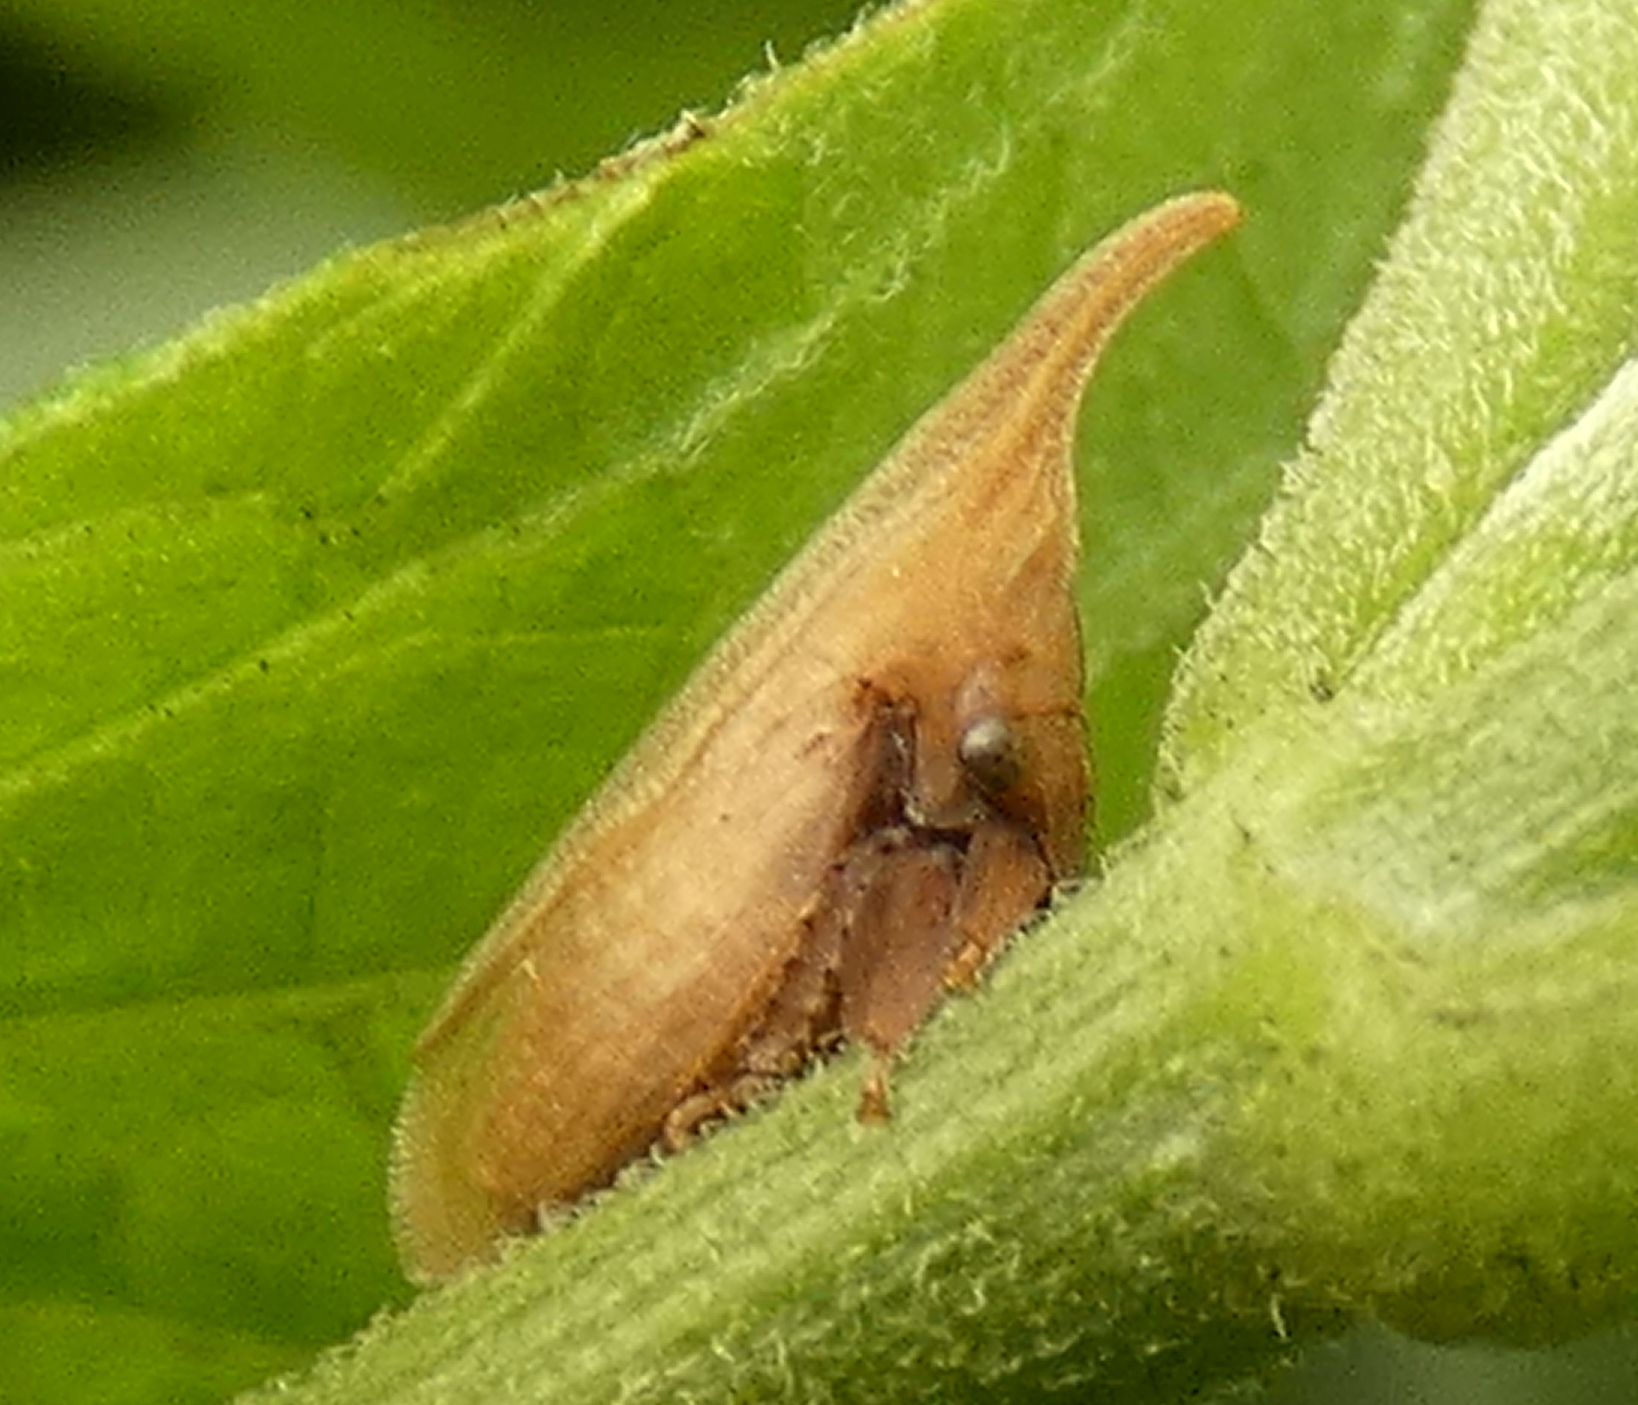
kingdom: Animalia
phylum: Arthropoda
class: Insecta
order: Hemiptera
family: Membracidae
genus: Enchenopa
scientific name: Enchenopa squamigera
